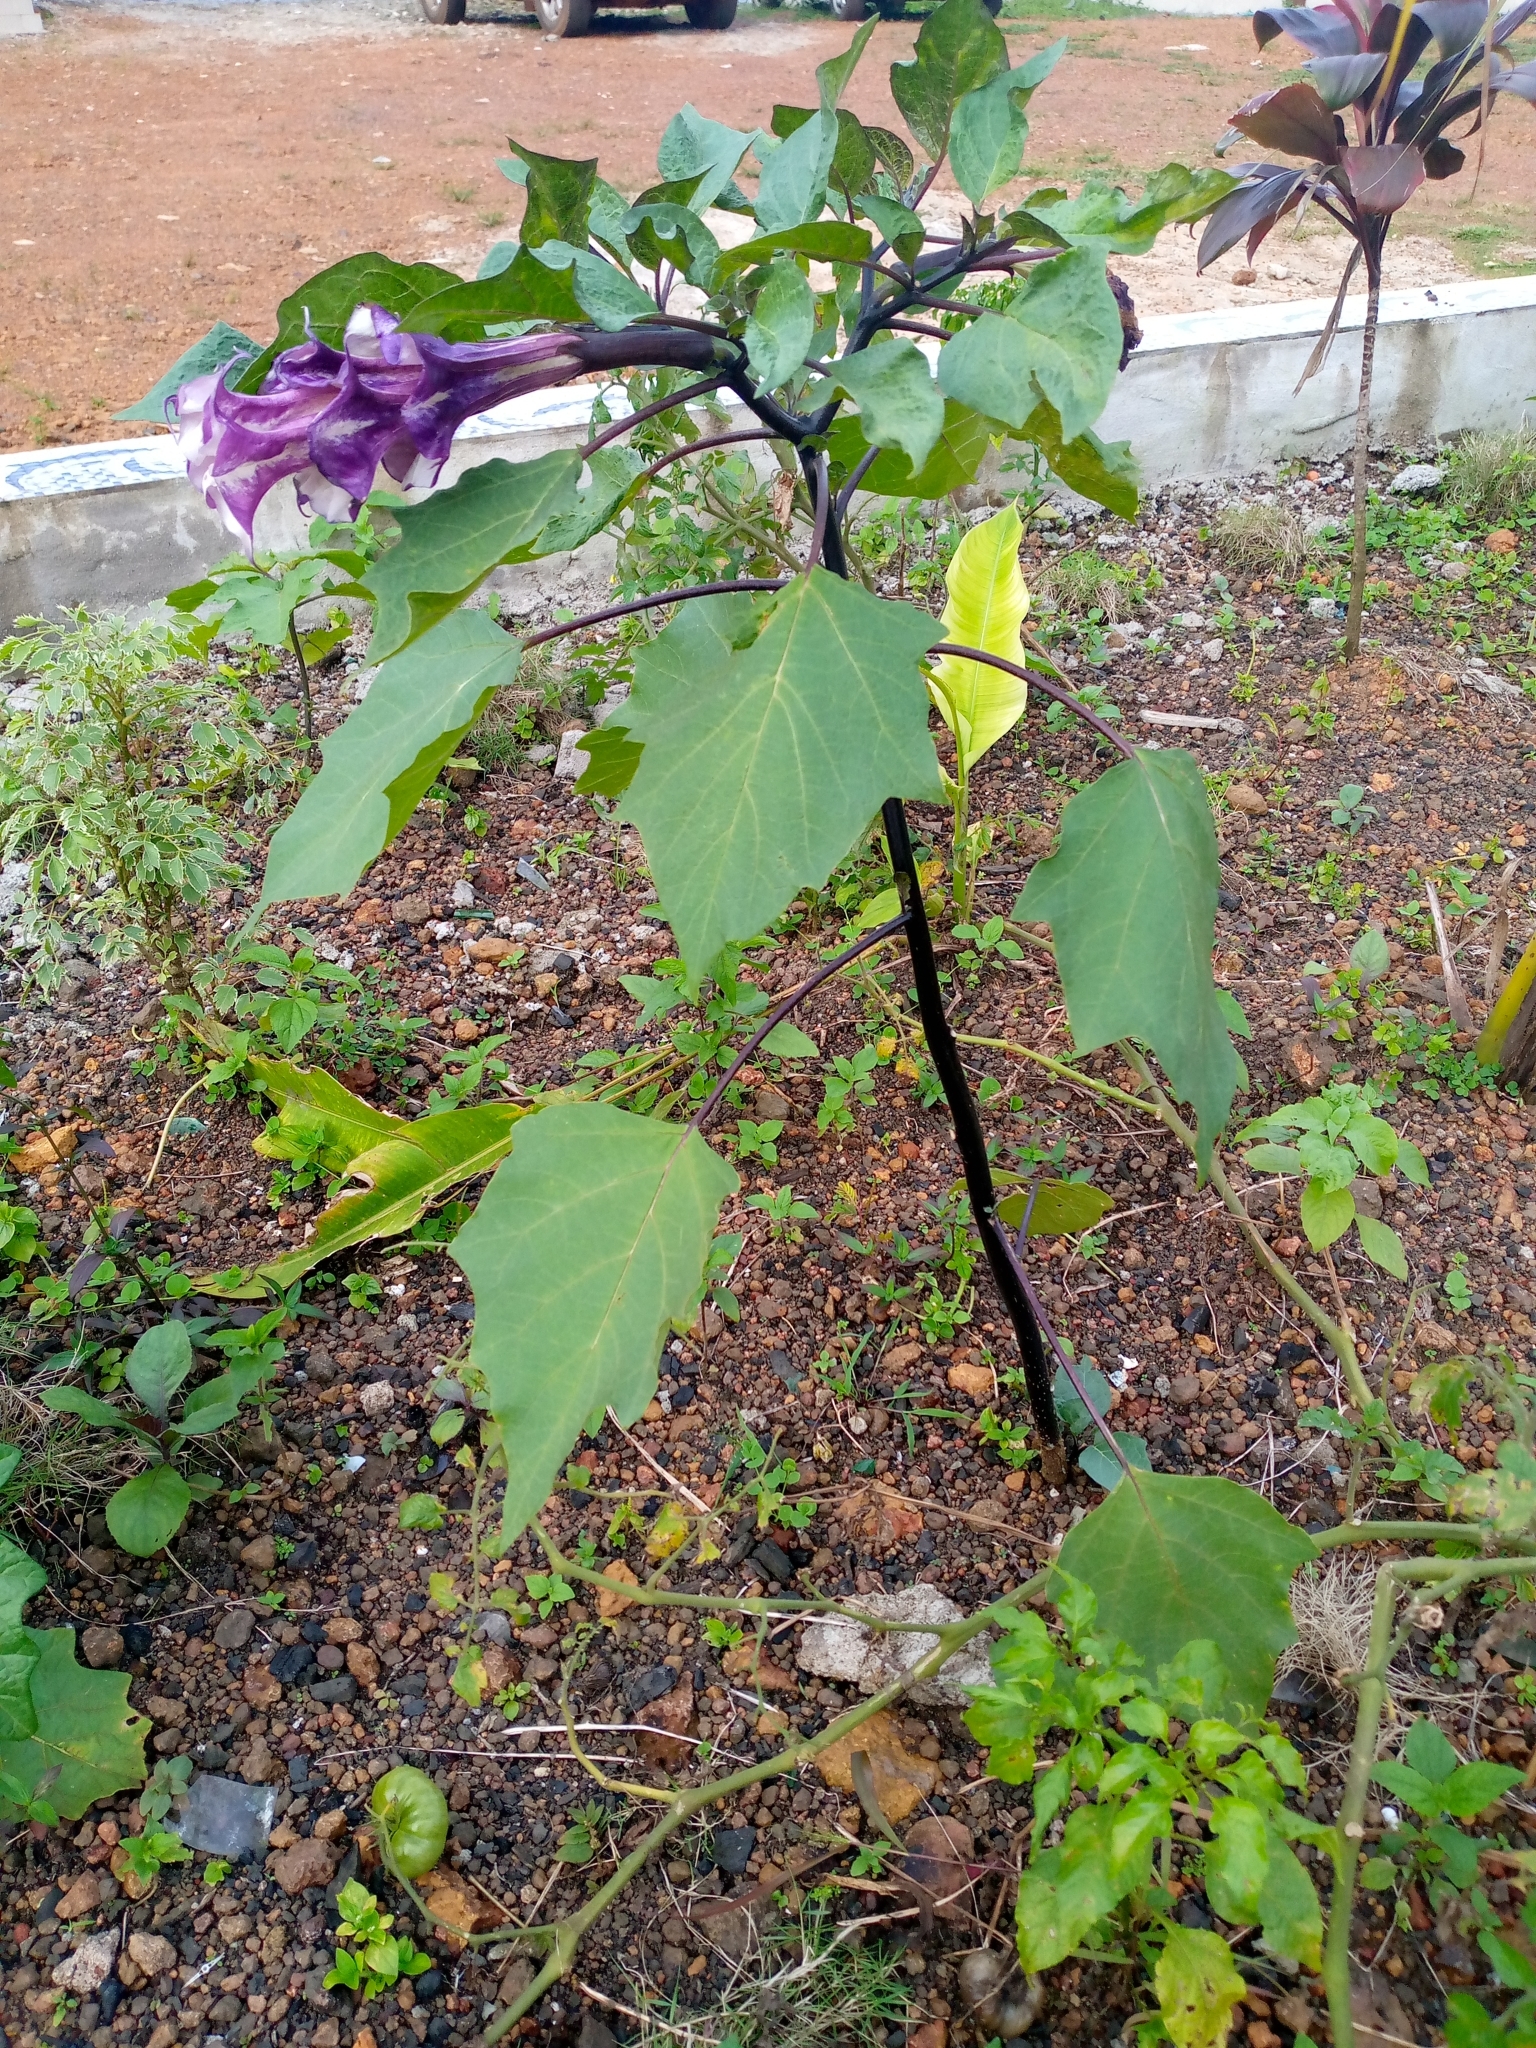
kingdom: Plantae
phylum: Tracheophyta
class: Magnoliopsida
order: Solanales
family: Solanaceae
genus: Datura
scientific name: Datura metel
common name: Jimsonweed
